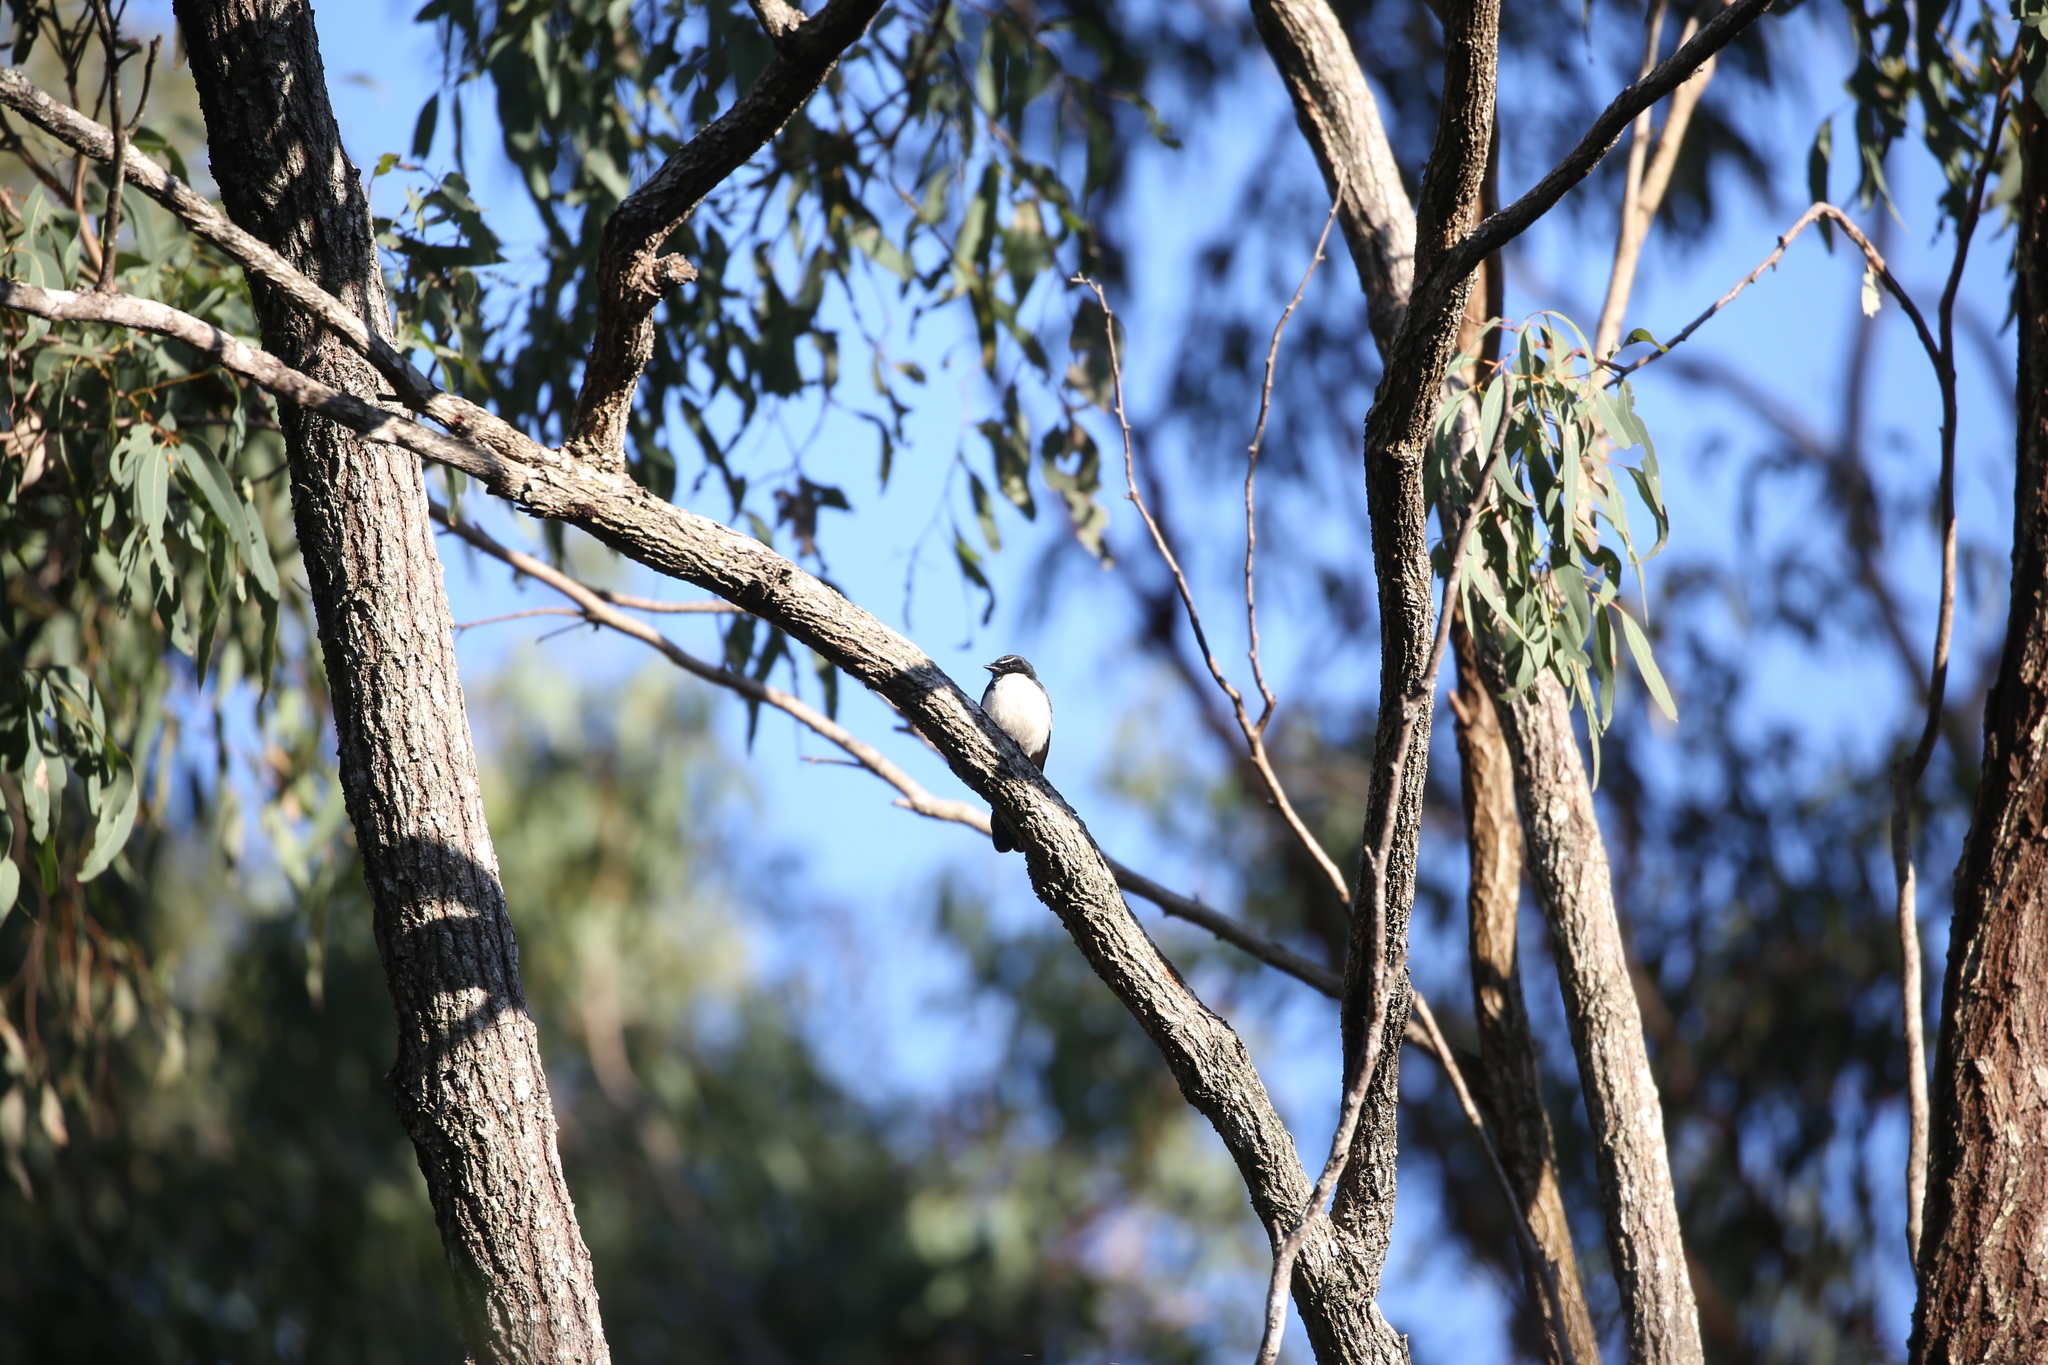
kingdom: Animalia
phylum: Chordata
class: Aves
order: Passeriformes
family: Rhipiduridae
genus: Rhipidura
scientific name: Rhipidura leucophrys
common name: Willie wagtail
